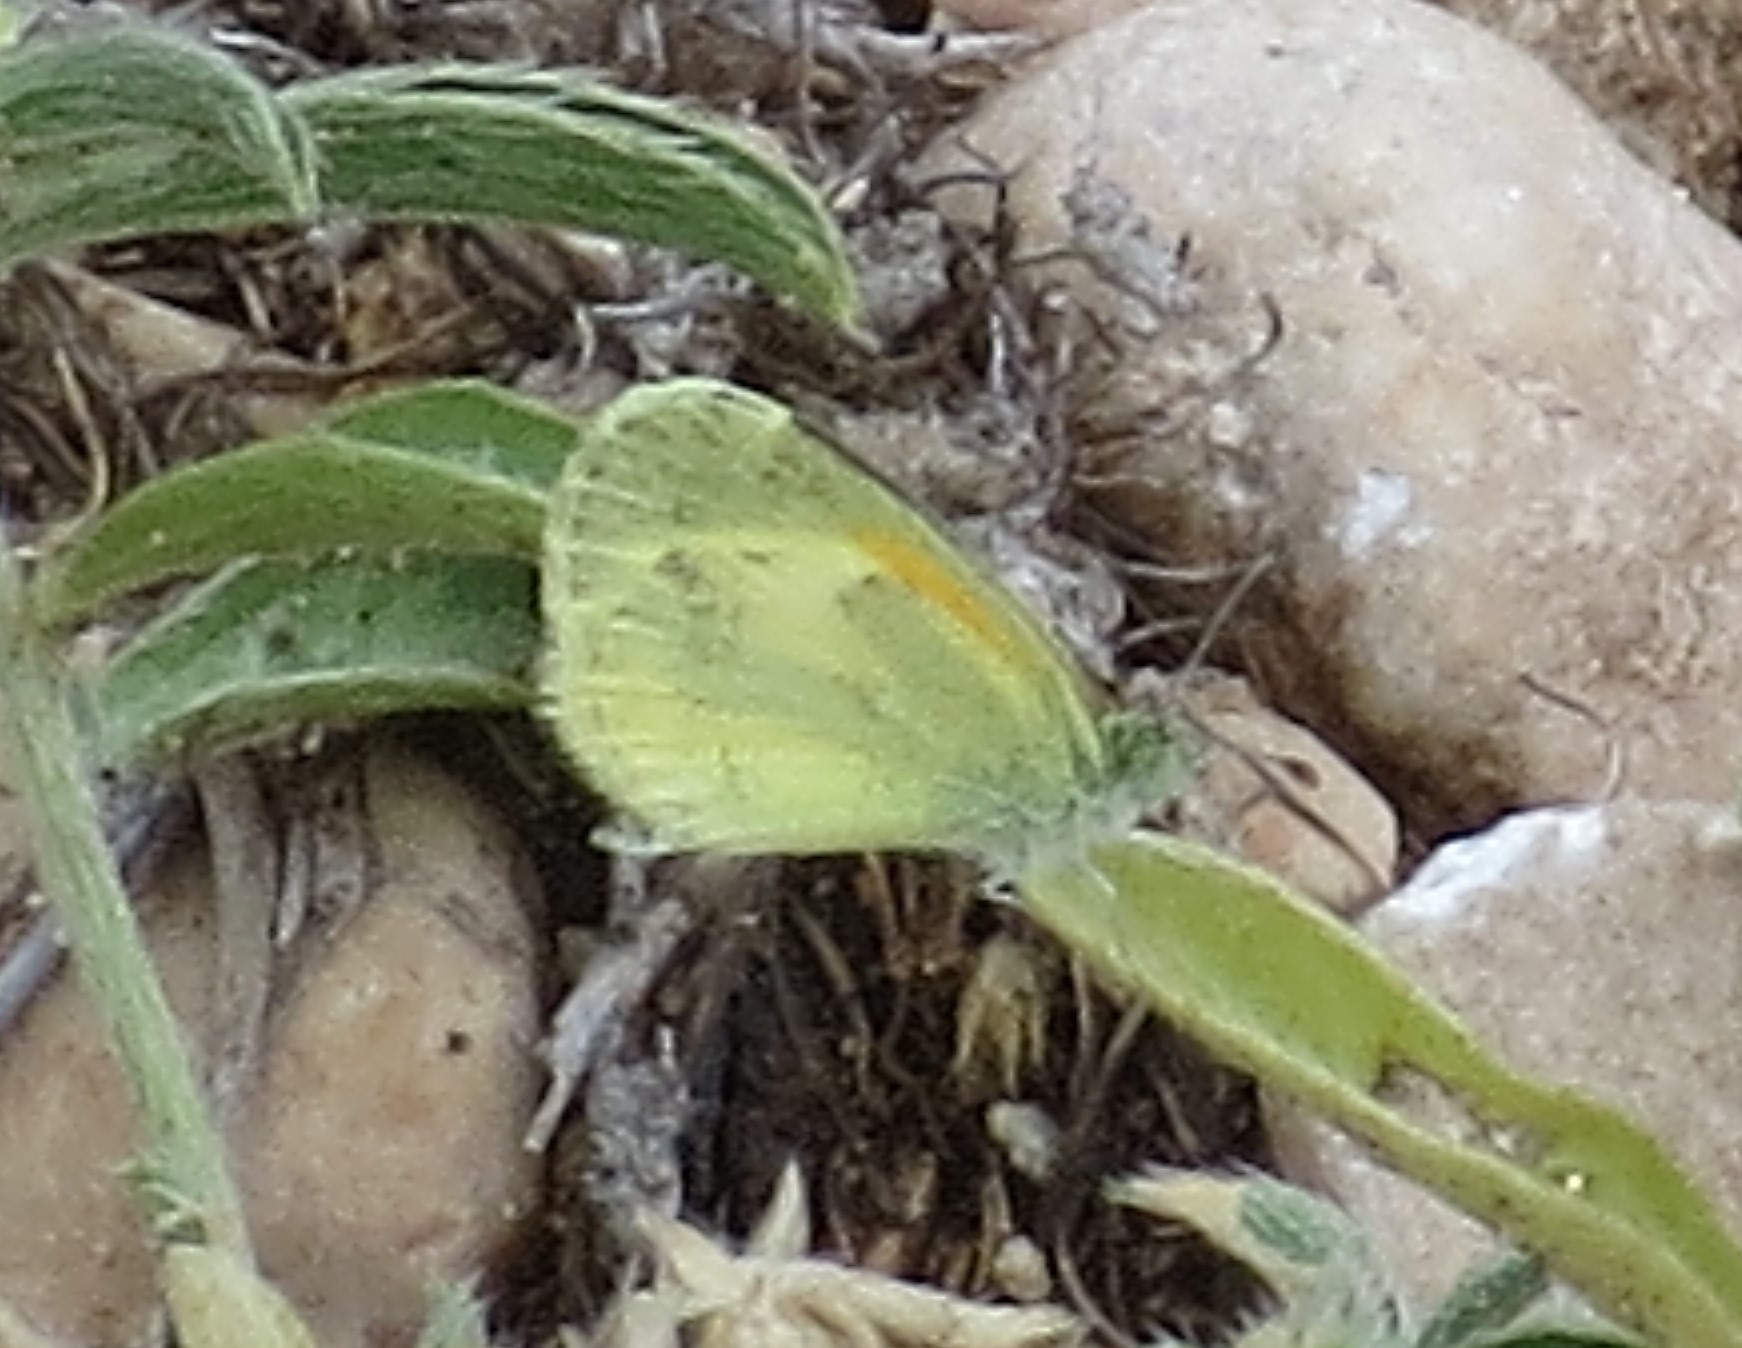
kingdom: Animalia
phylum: Arthropoda
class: Insecta
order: Lepidoptera
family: Pieridae
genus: Nathalis
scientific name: Nathalis iole
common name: Dainty sulphur
